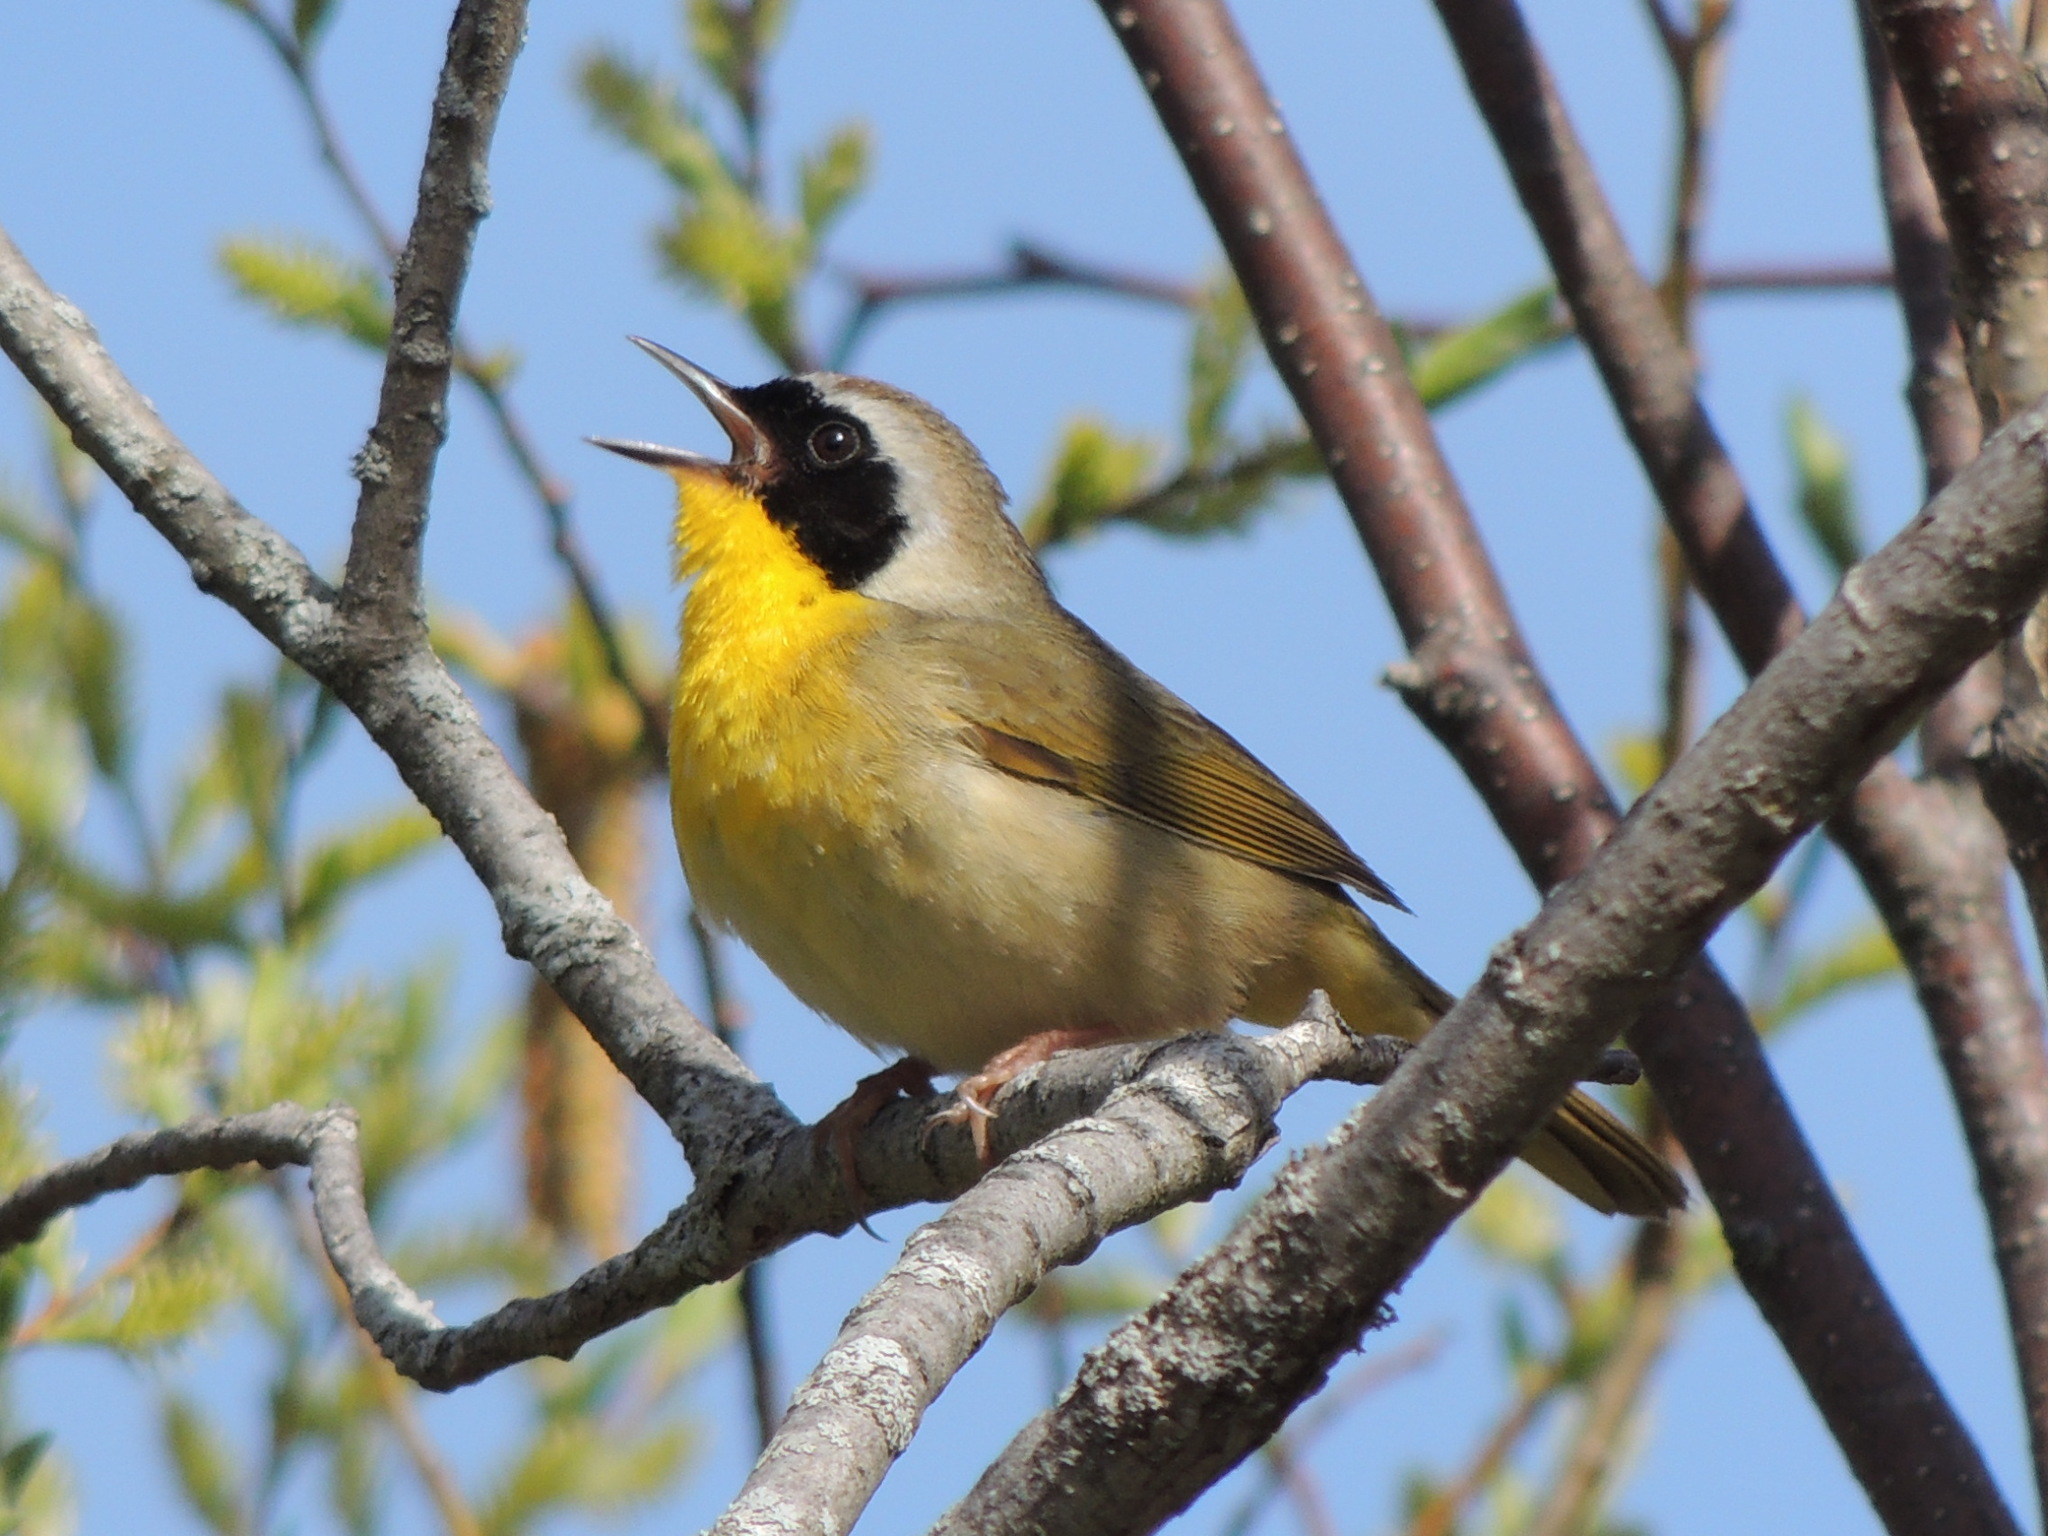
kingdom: Animalia
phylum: Chordata
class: Aves
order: Passeriformes
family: Parulidae
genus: Geothlypis
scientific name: Geothlypis trichas
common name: Common yellowthroat
